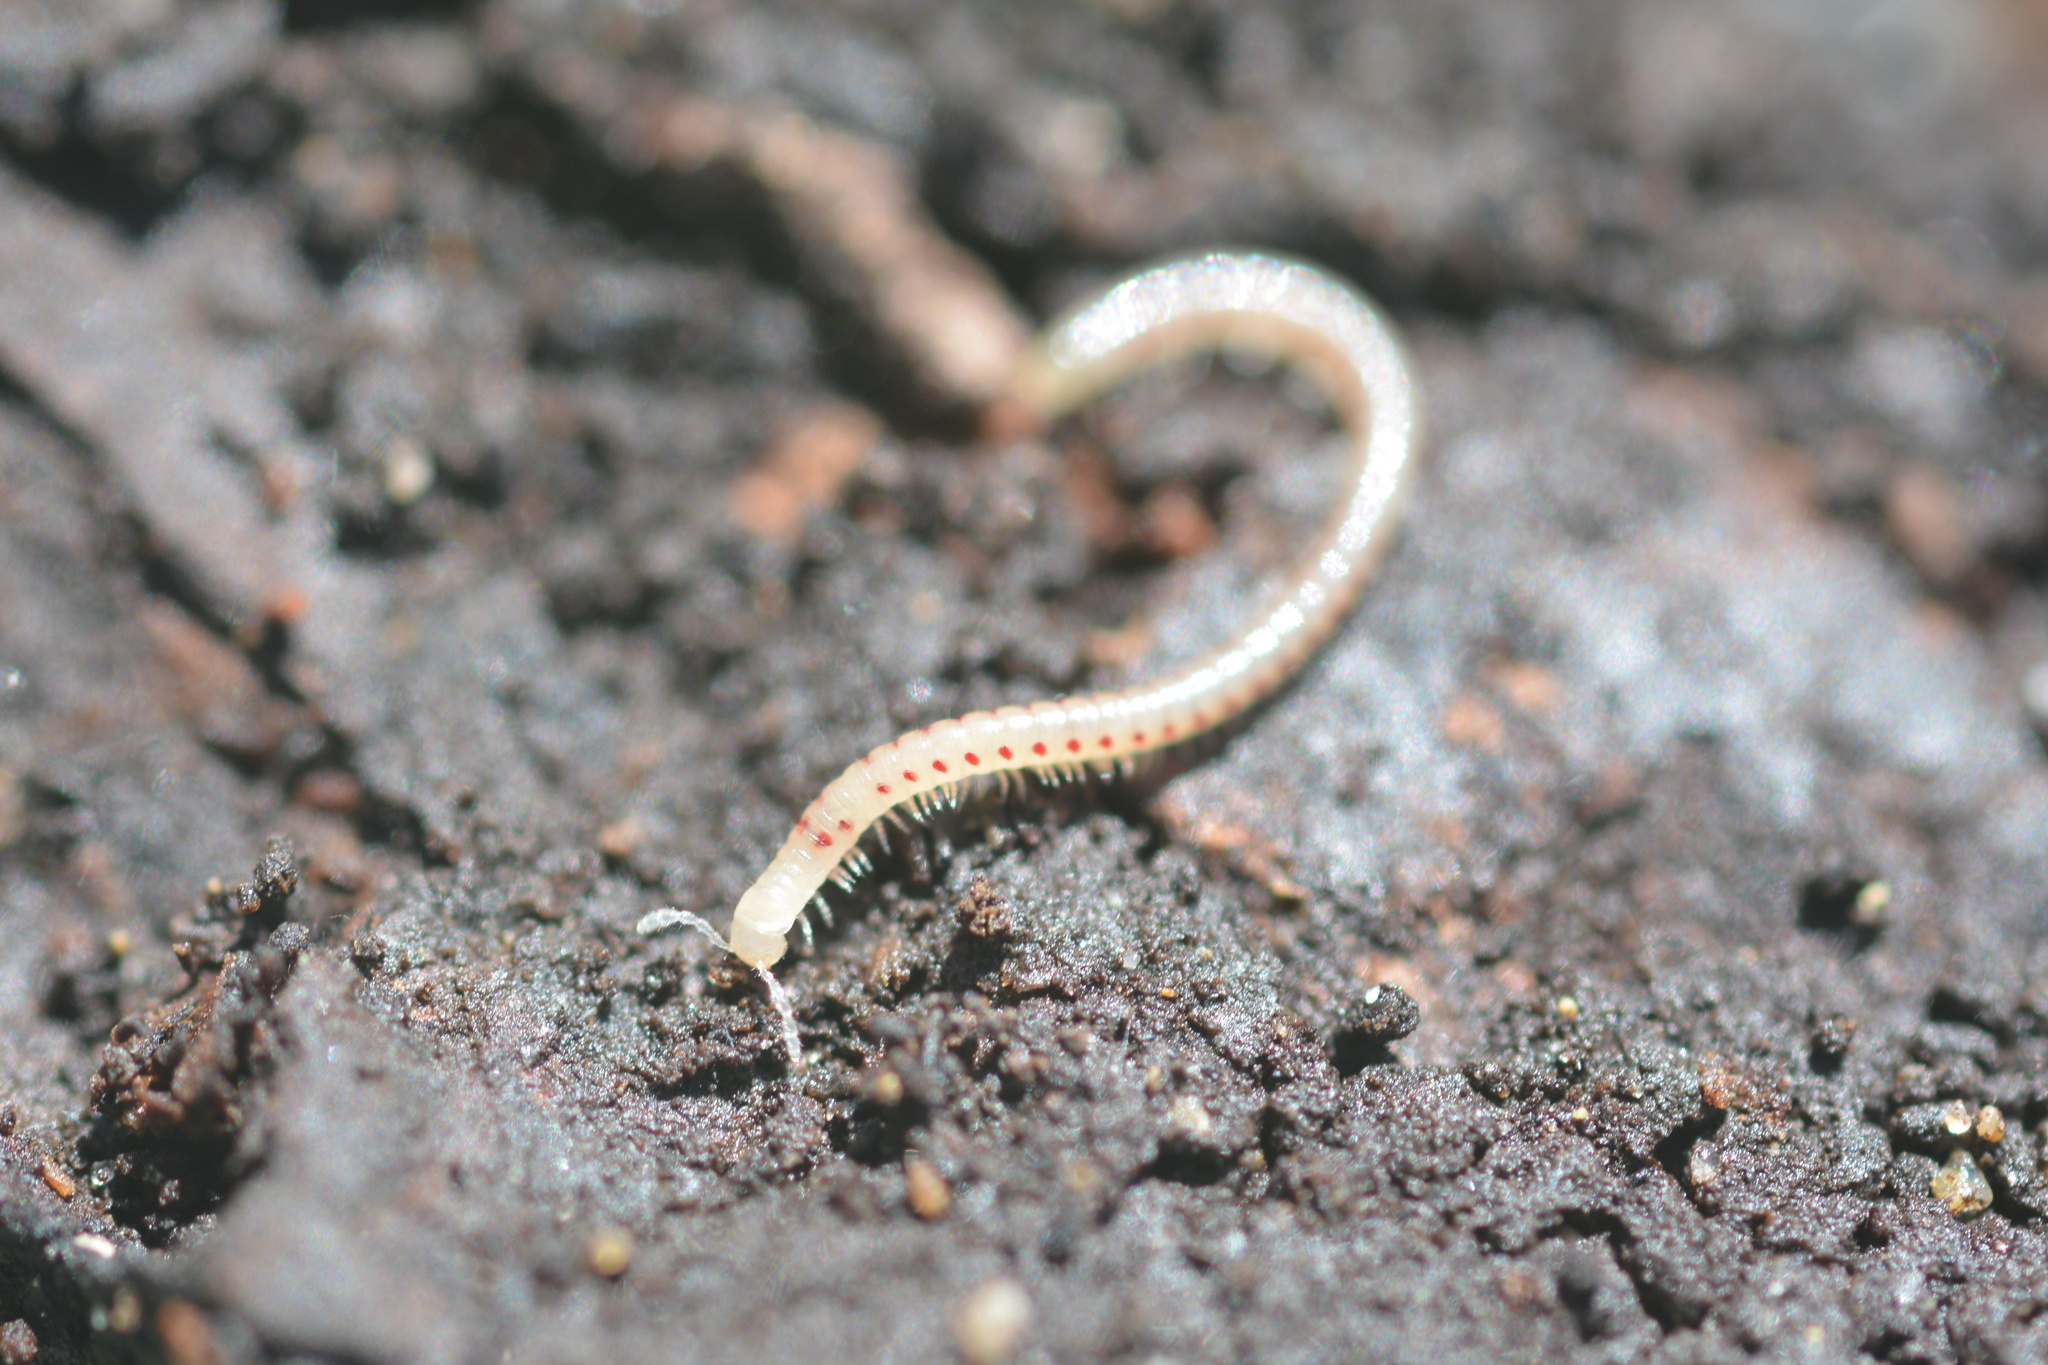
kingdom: Animalia
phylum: Arthropoda
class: Diplopoda
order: Julida
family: Blaniulidae
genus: Blaniulus
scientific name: Blaniulus guttulatus
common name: Spotted snake millipede
